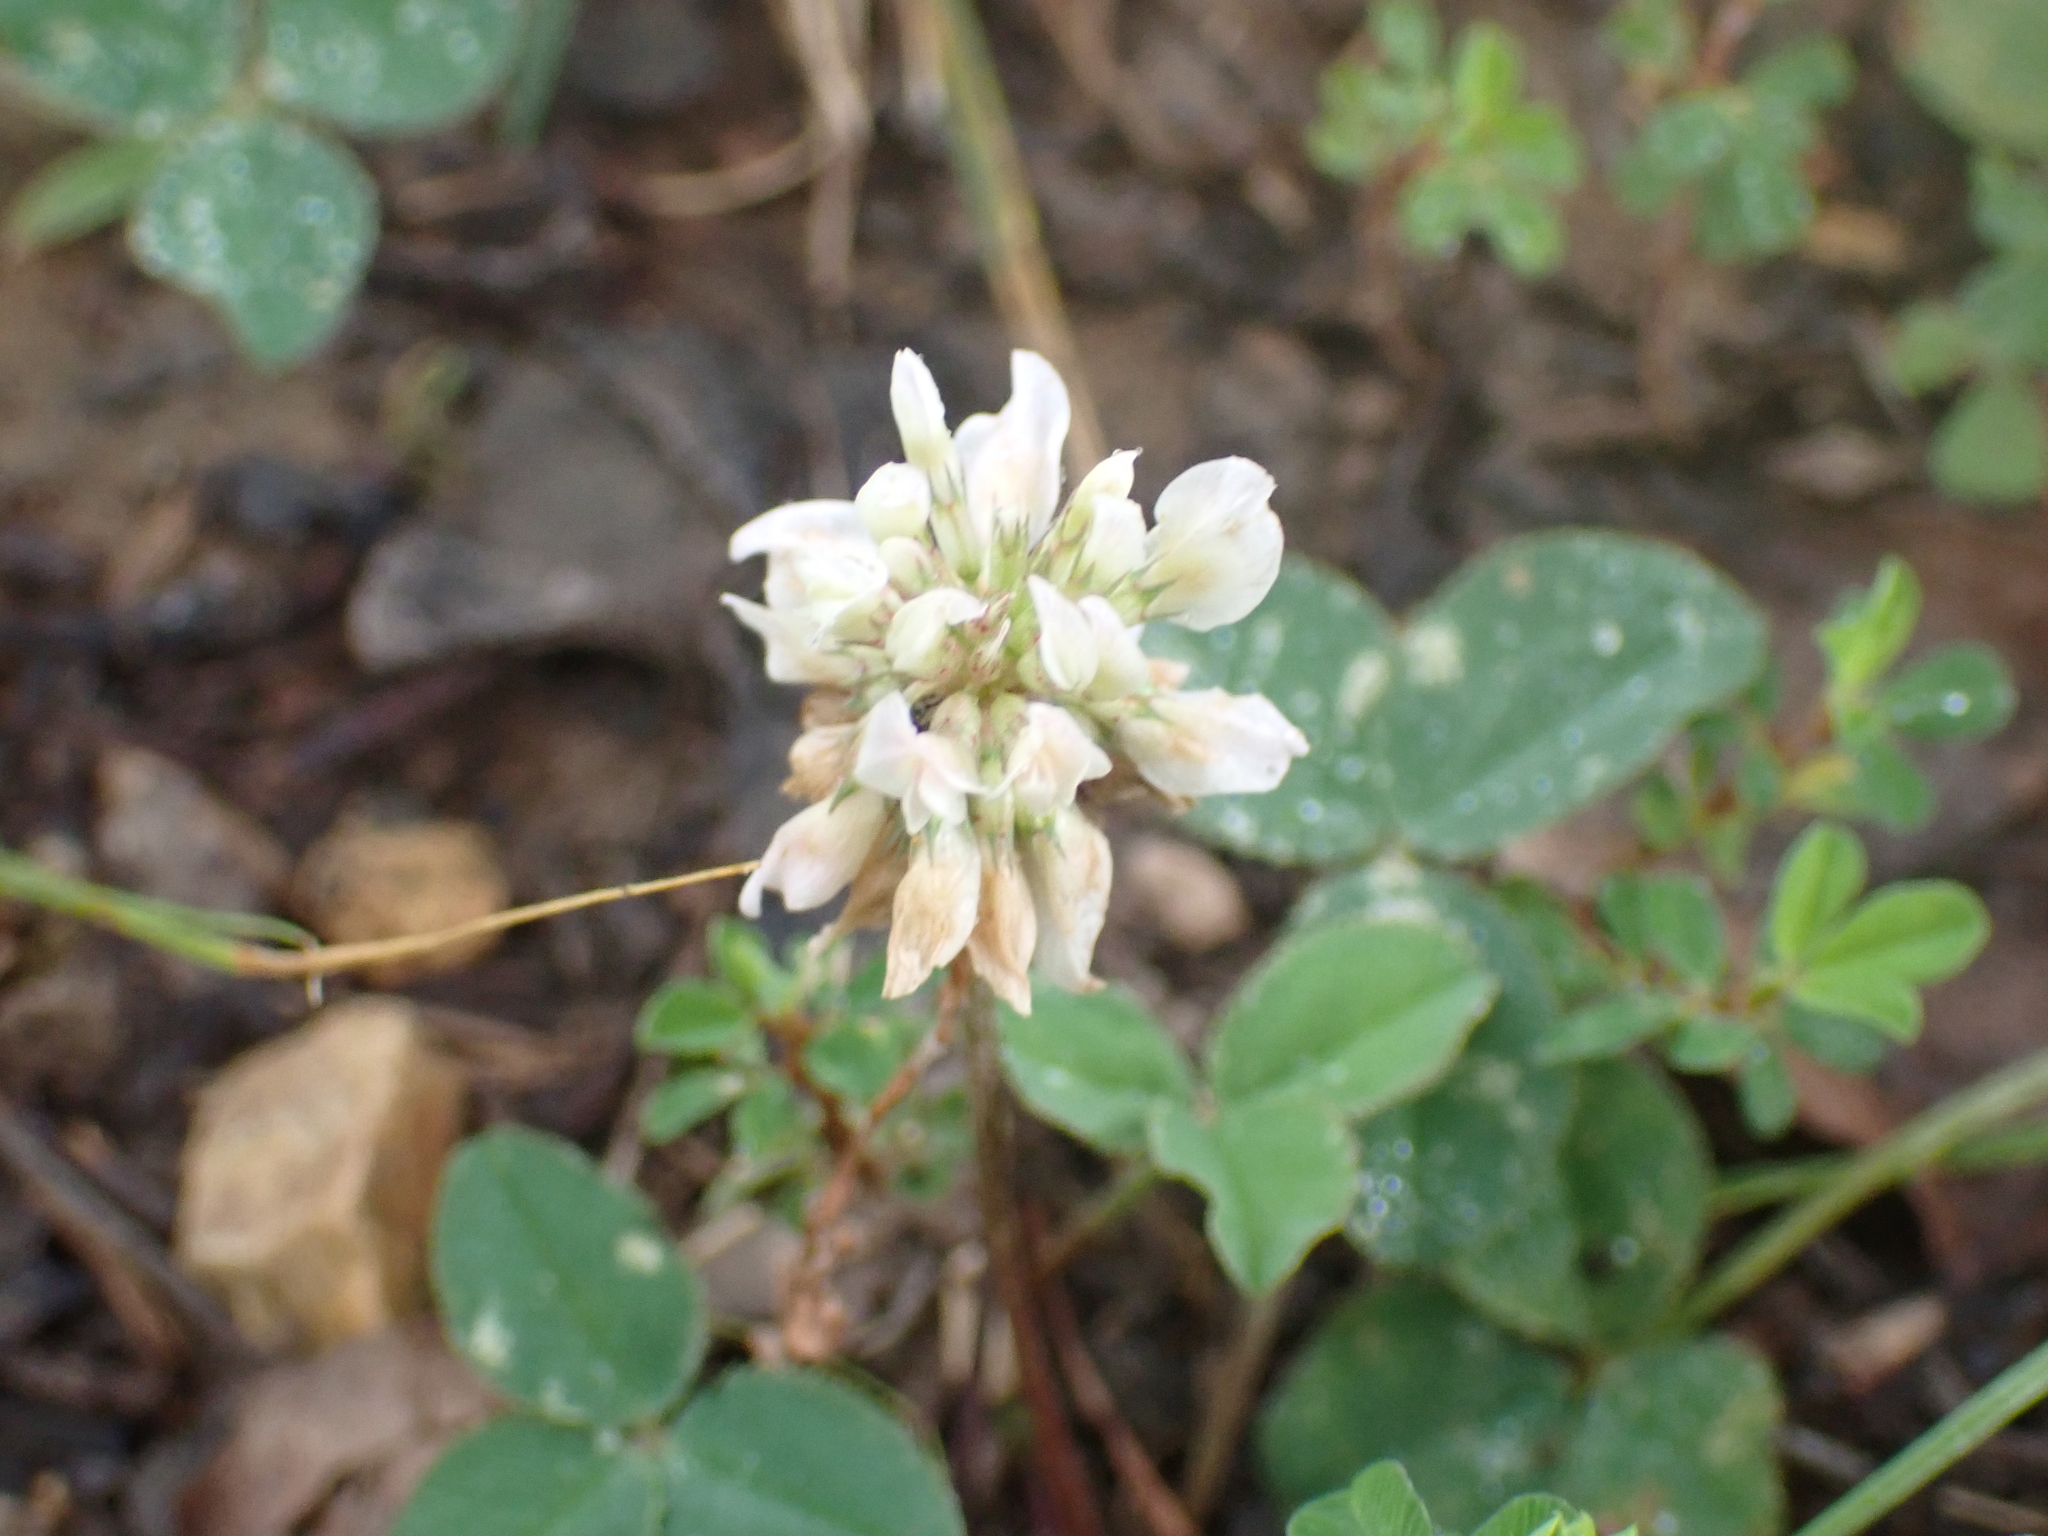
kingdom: Plantae
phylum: Tracheophyta
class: Magnoliopsida
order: Fabales
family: Fabaceae
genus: Trifolium
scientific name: Trifolium repens
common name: White clover
